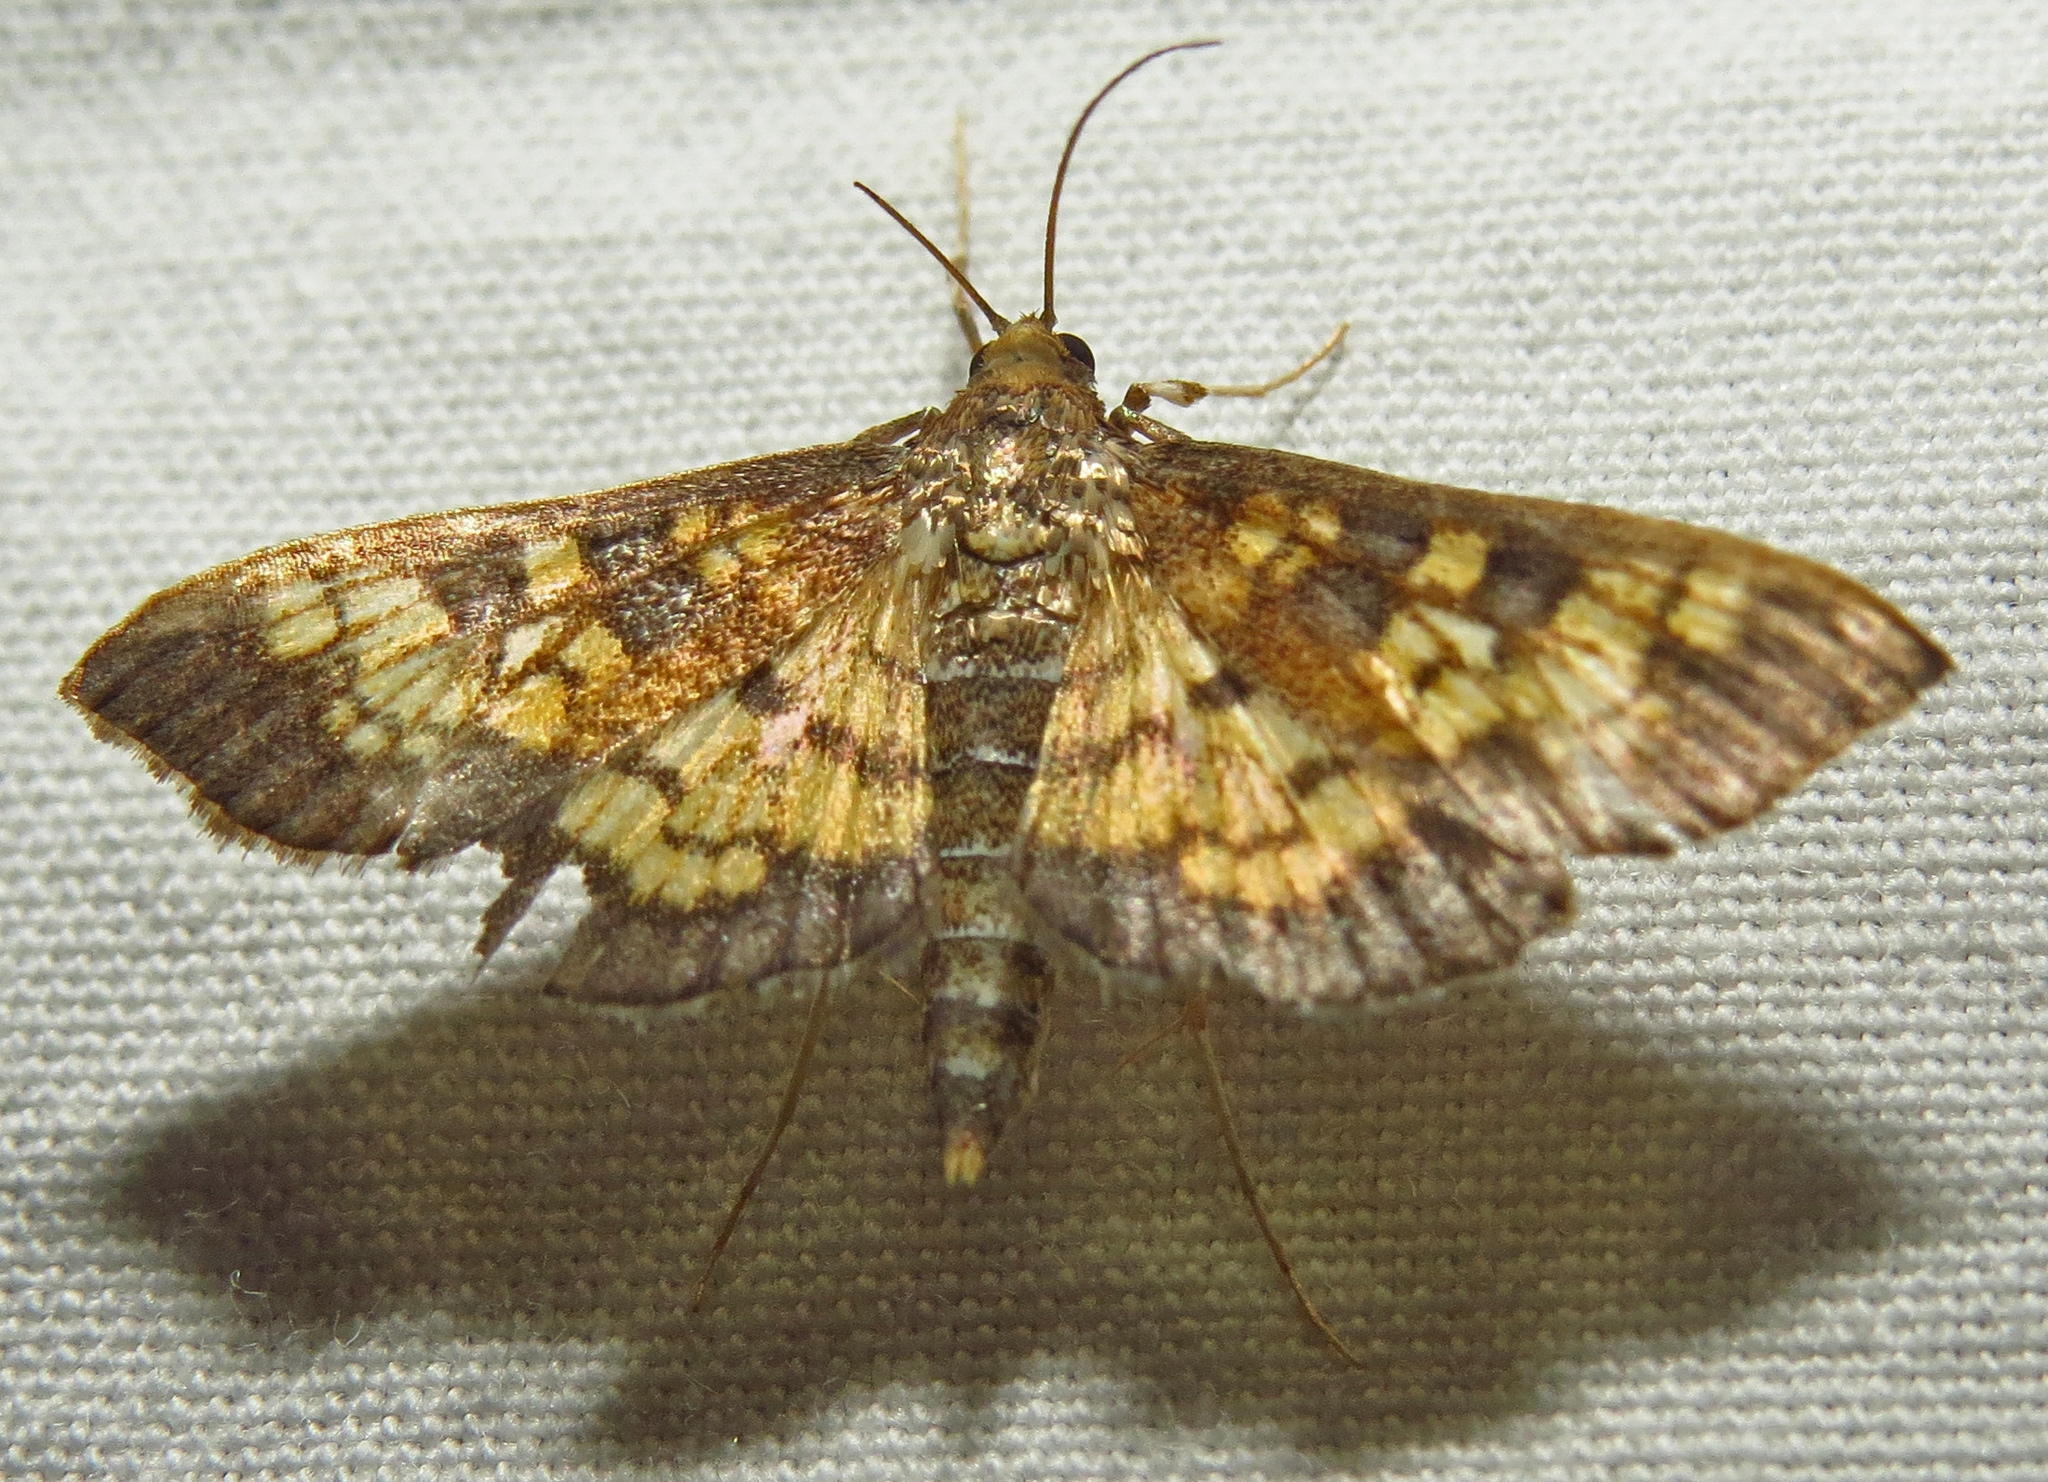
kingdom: Animalia
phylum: Arthropoda
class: Insecta
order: Lepidoptera
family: Crambidae
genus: Epipagis
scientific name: Epipagis adipaloides
